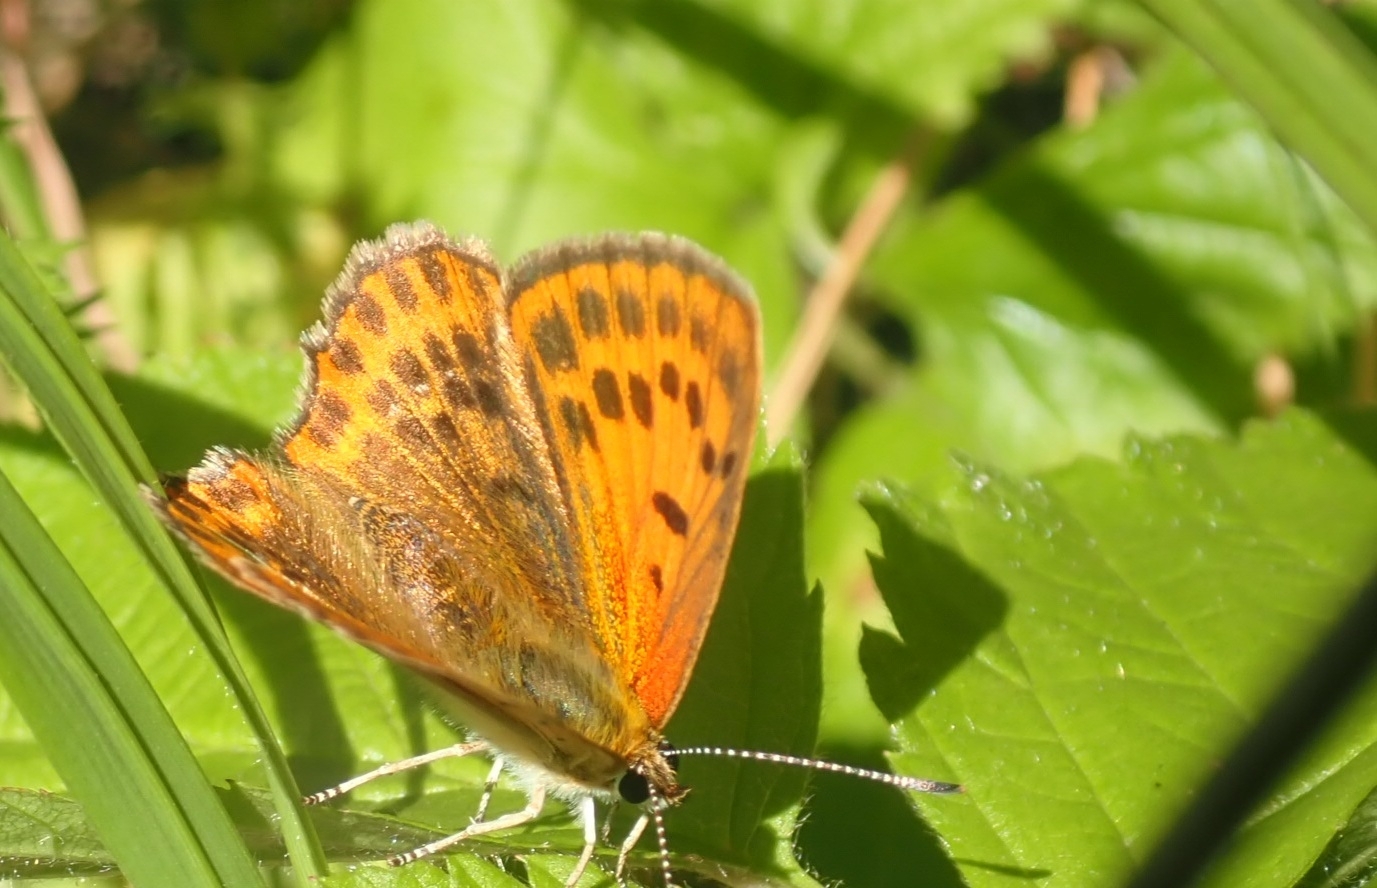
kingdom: Animalia
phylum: Arthropoda
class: Insecta
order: Lepidoptera
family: Lycaenidae
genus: Lycaena
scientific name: Lycaena virgaureae
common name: Scarce copper
